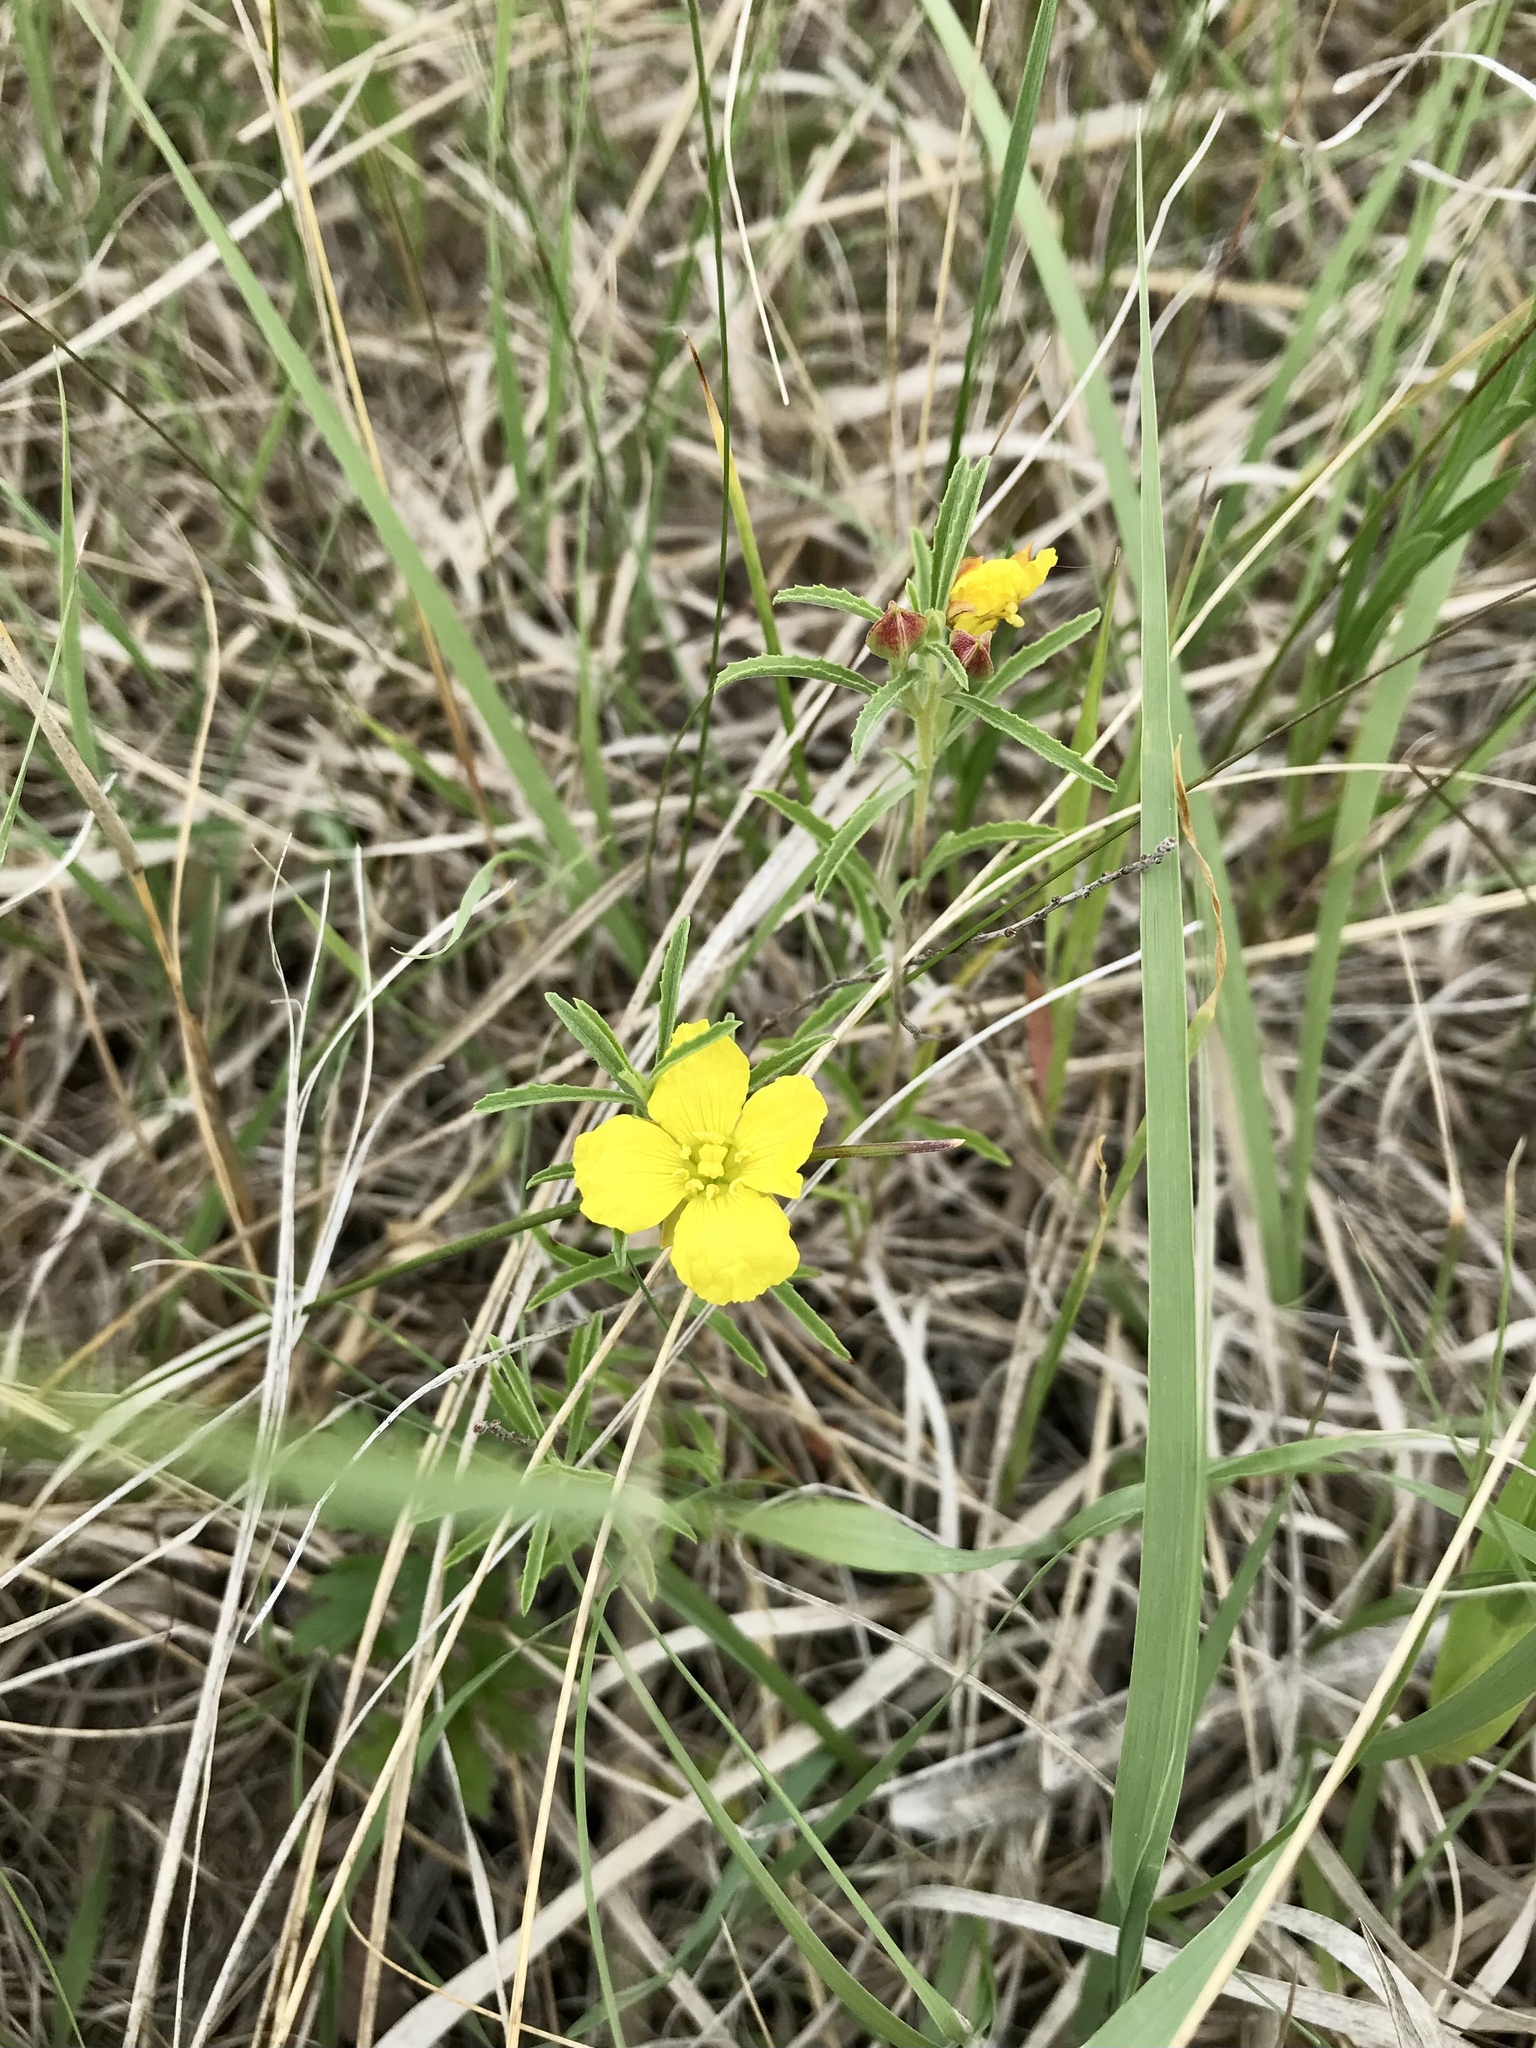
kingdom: Plantae
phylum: Tracheophyta
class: Magnoliopsida
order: Myrtales
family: Onagraceae
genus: Oenothera
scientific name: Oenothera serrulata
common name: Half-shrub calylophus
